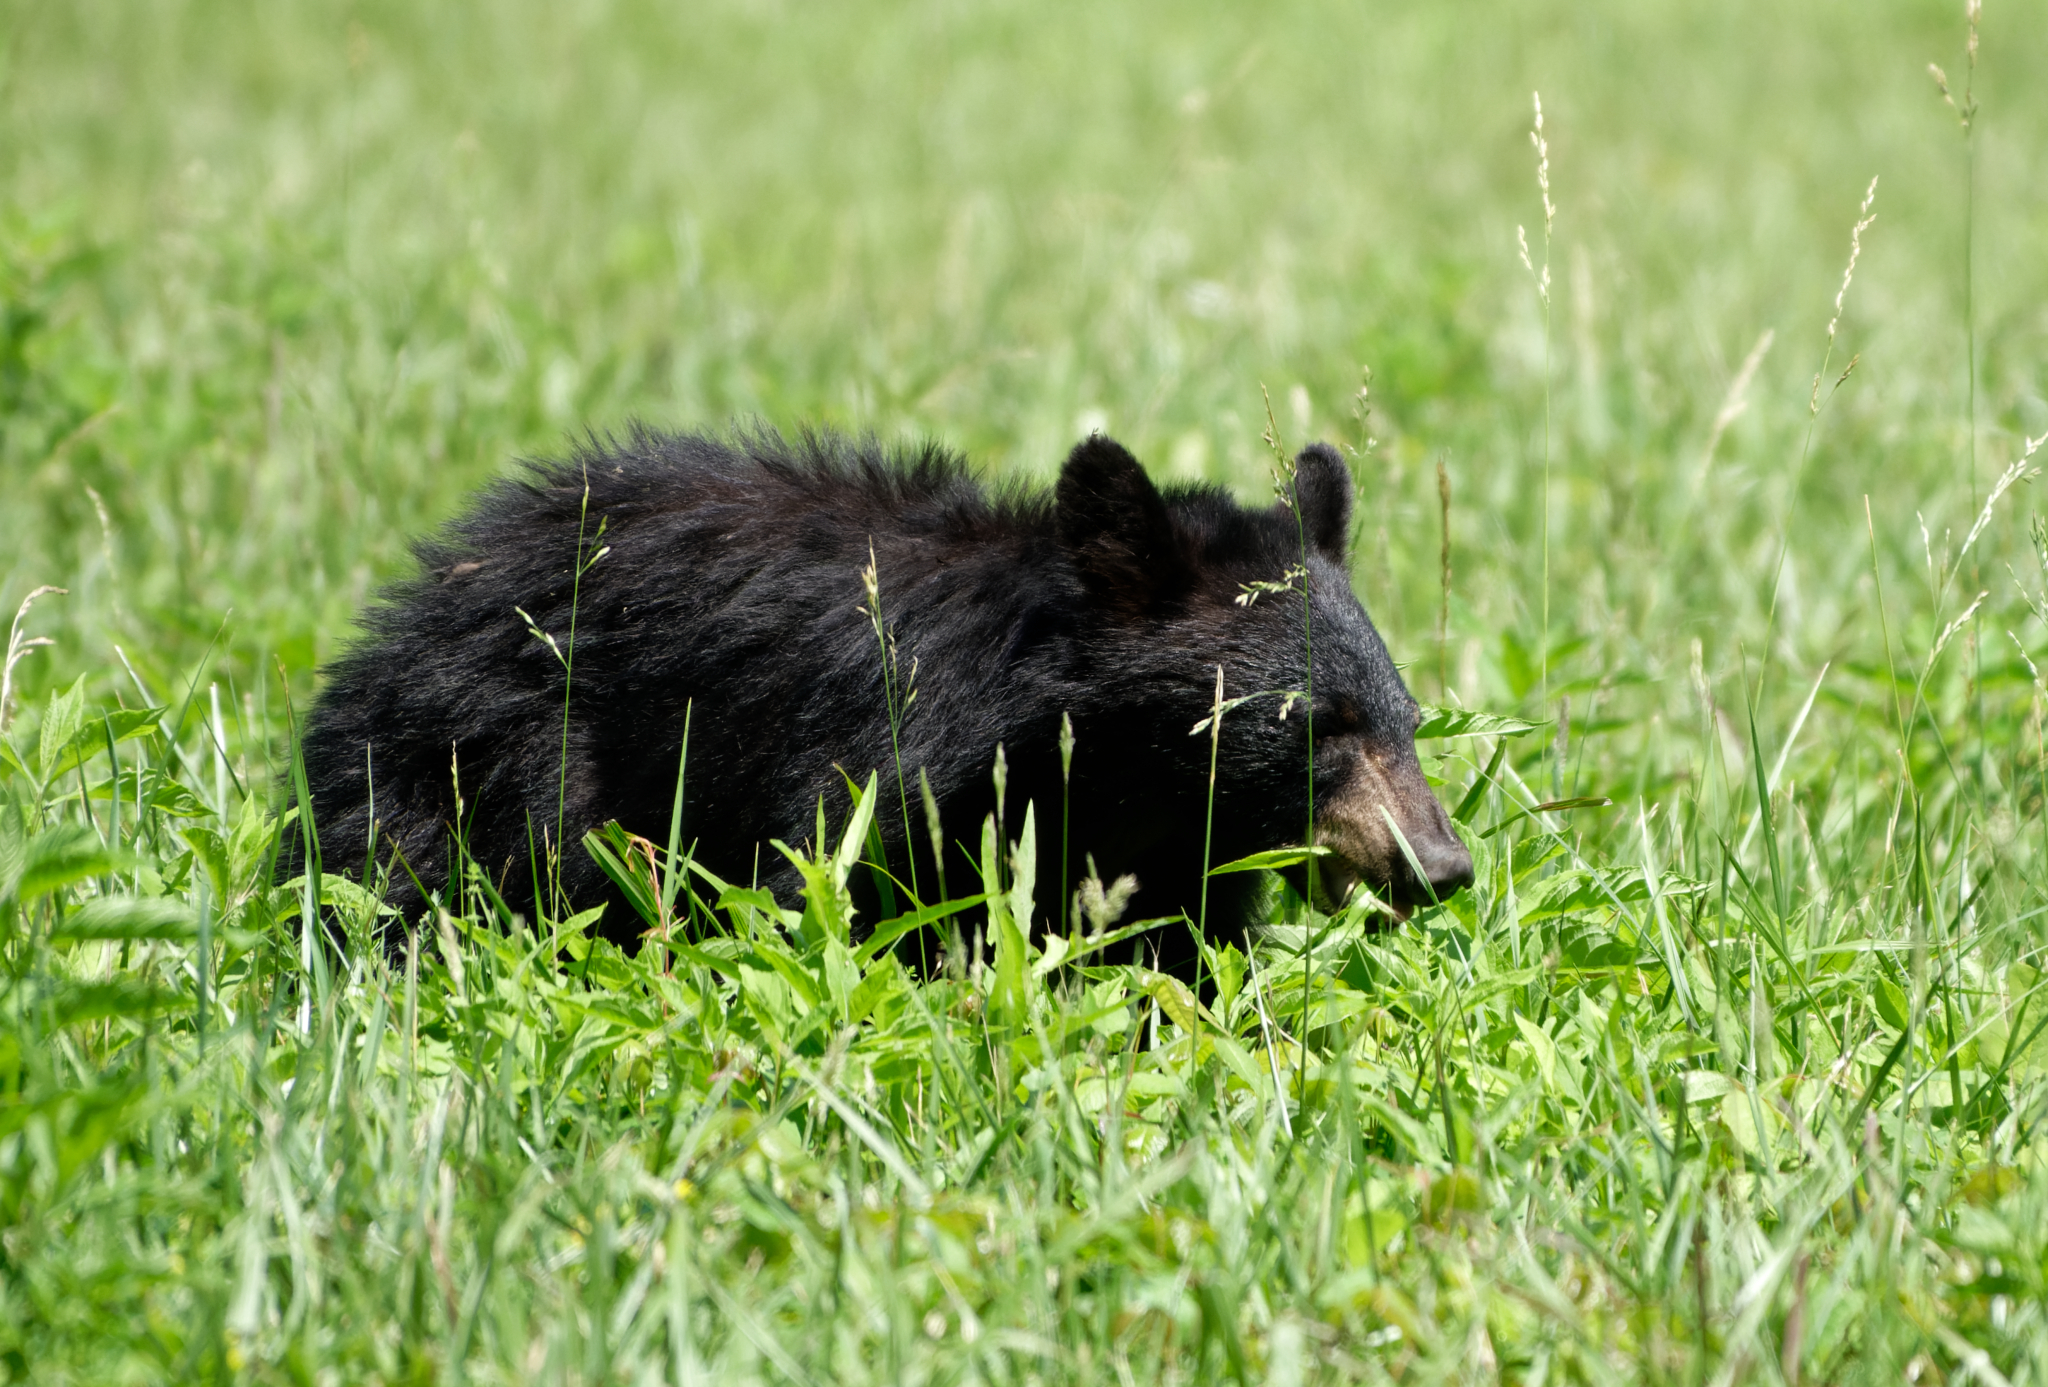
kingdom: Animalia
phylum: Chordata
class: Mammalia
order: Carnivora
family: Ursidae
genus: Ursus
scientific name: Ursus americanus
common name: American black bear
